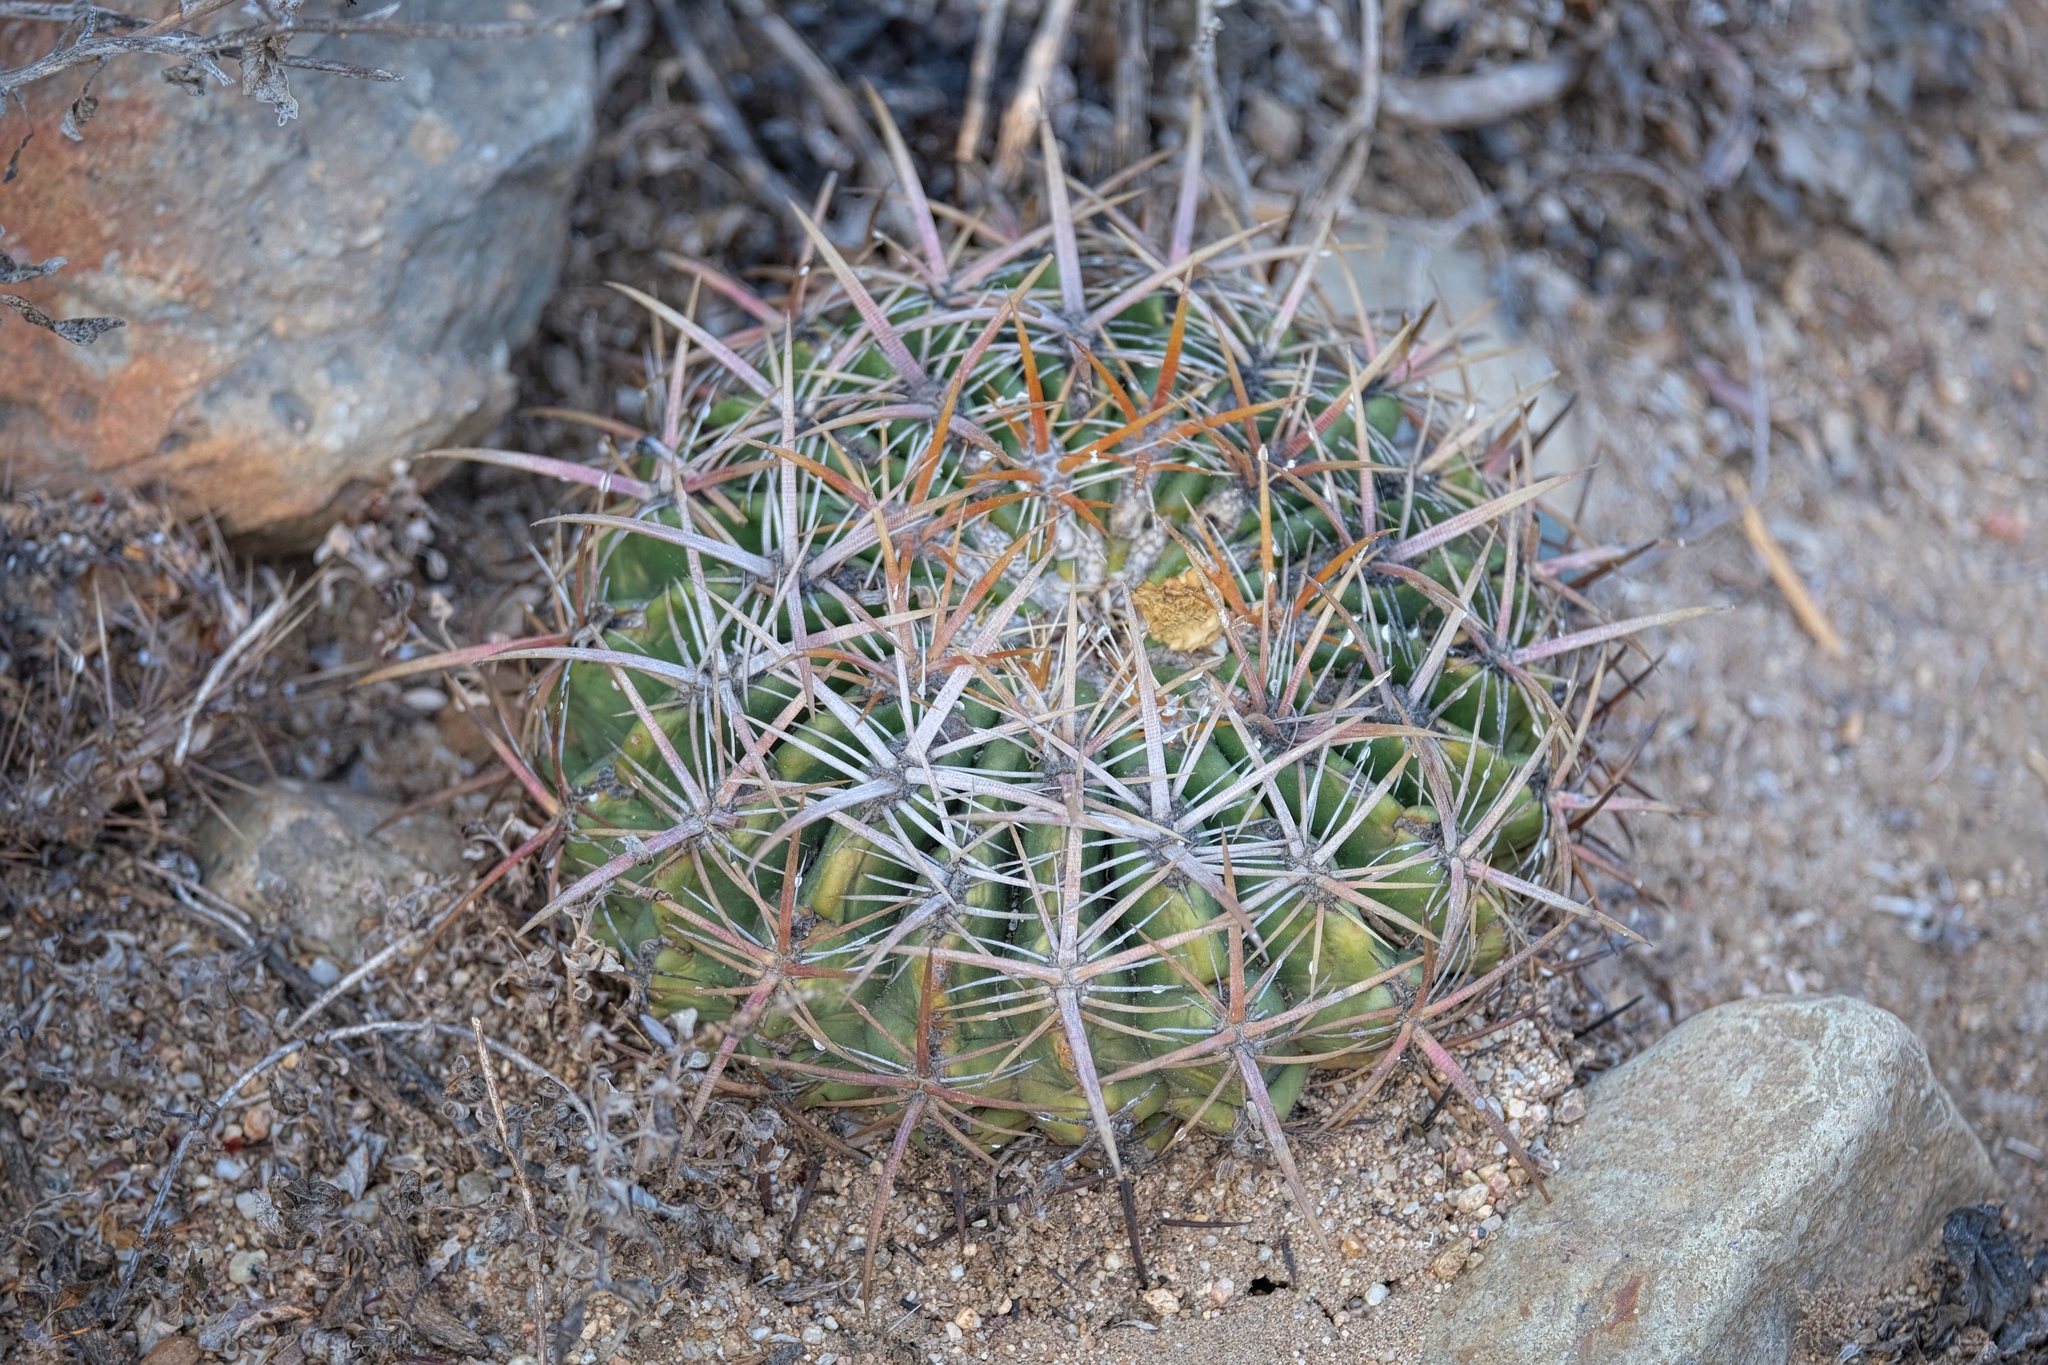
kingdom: Plantae
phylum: Tracheophyta
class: Magnoliopsida
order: Caryophyllales
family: Cactaceae
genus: Ferocactus
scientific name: Ferocactus viridescens
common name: San diego barrel cactus
